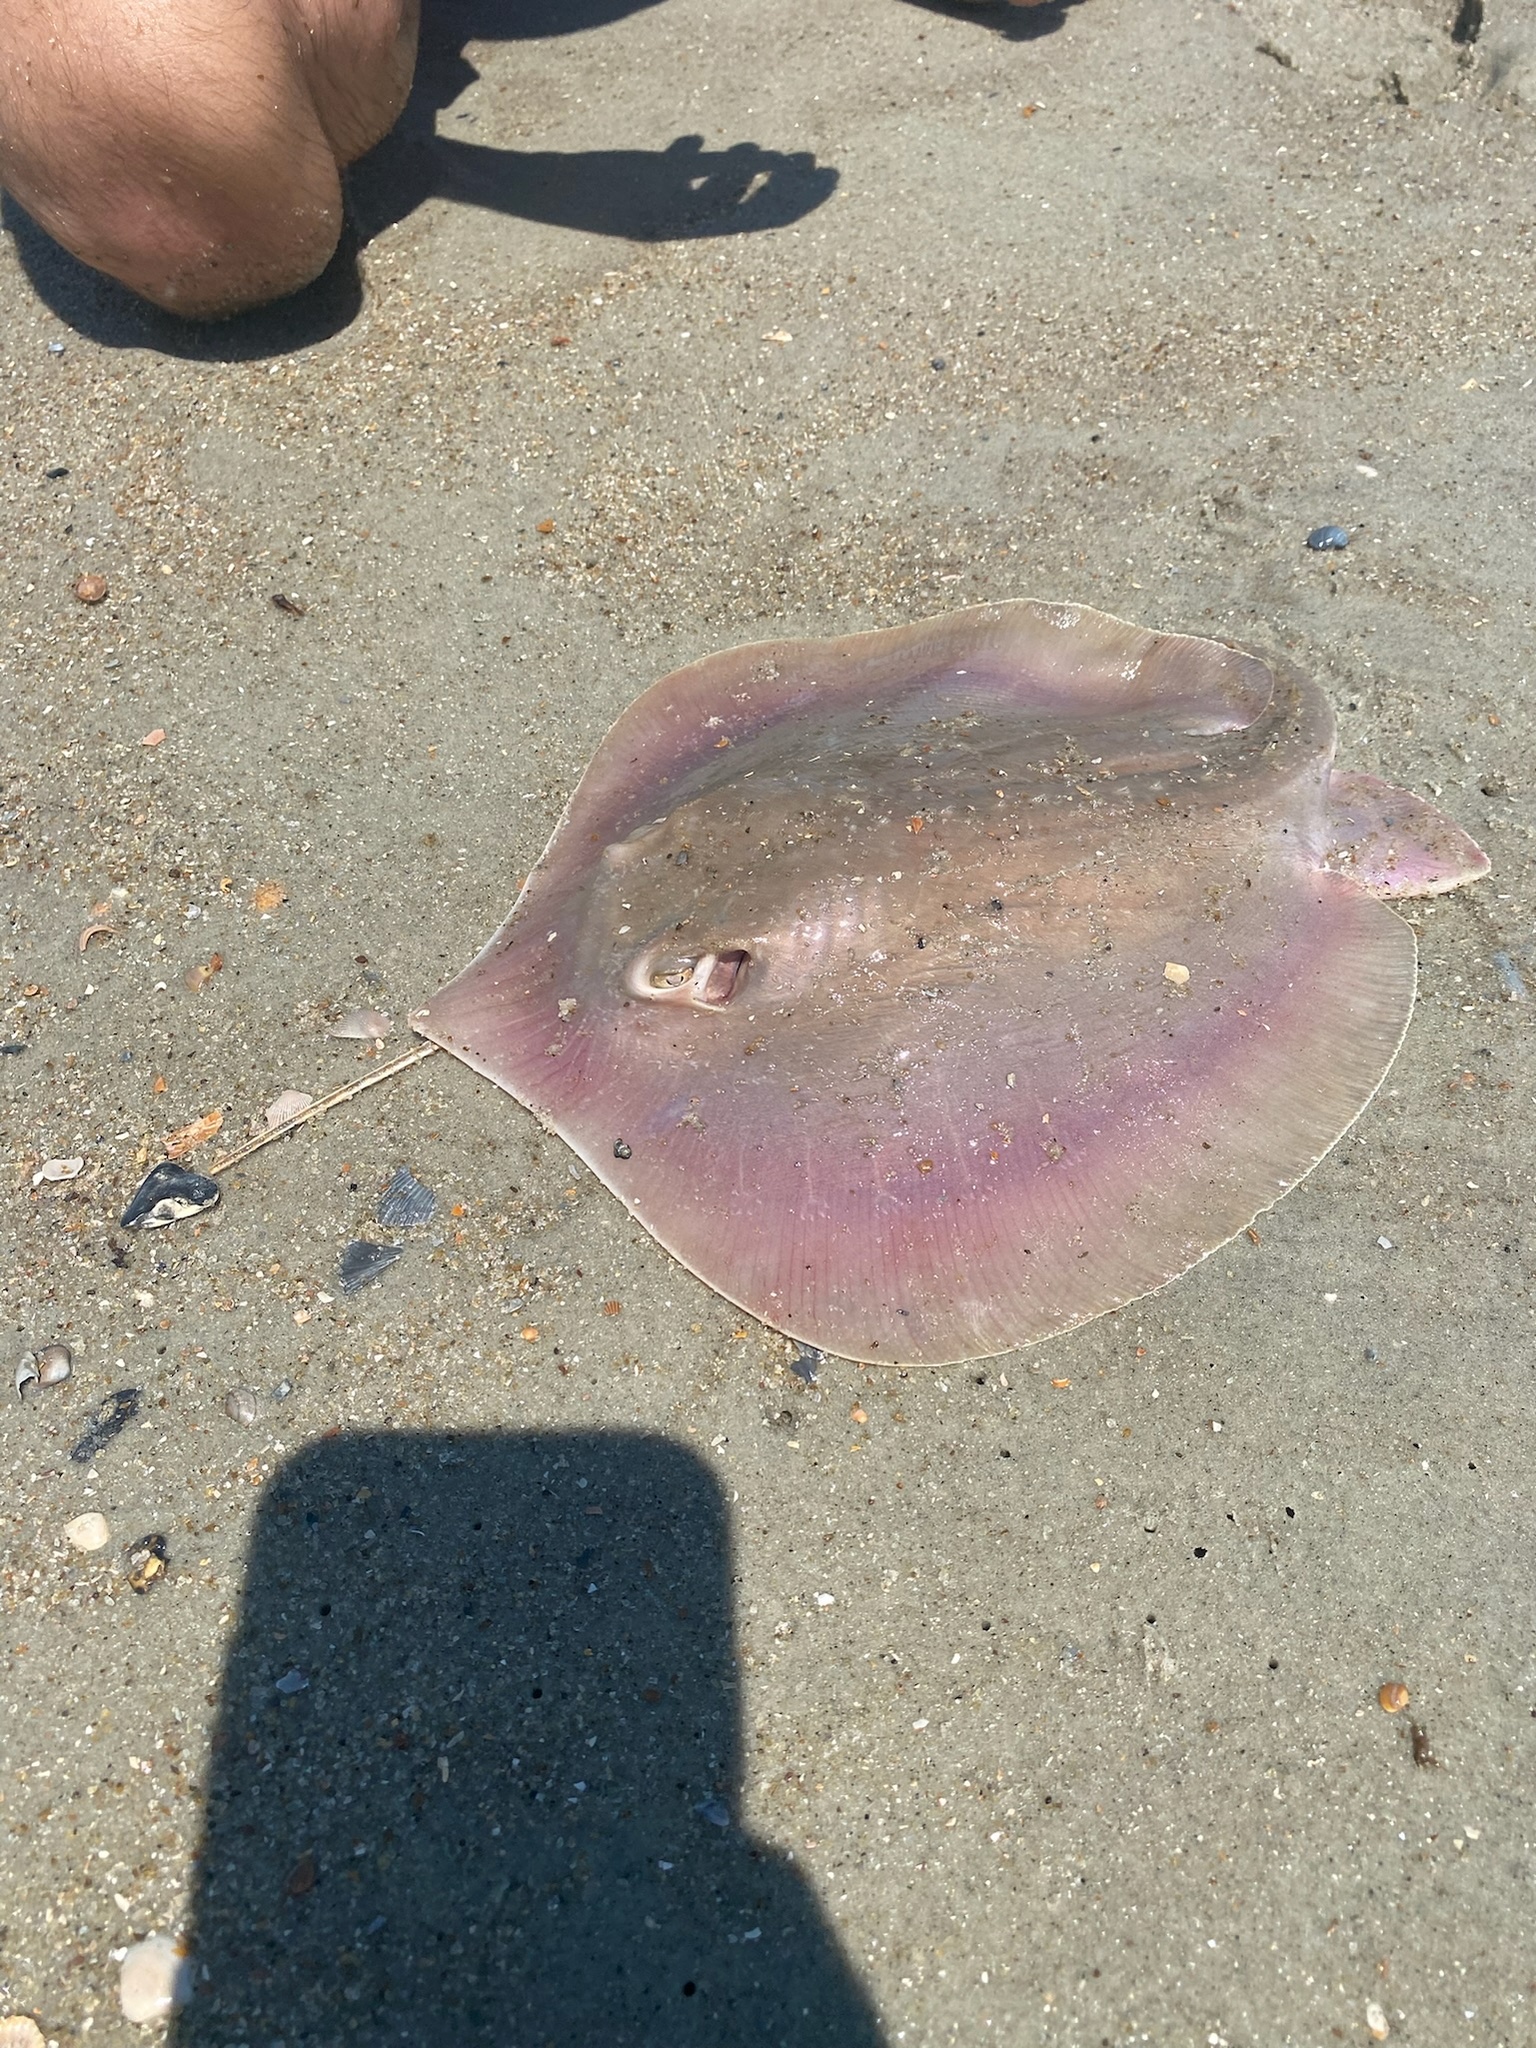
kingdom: Animalia
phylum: Chordata
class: Elasmobranchii
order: Myliobatiformes
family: Dasyatidae
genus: Hypanus
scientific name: Hypanus sabinus
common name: Atlantic stingray
